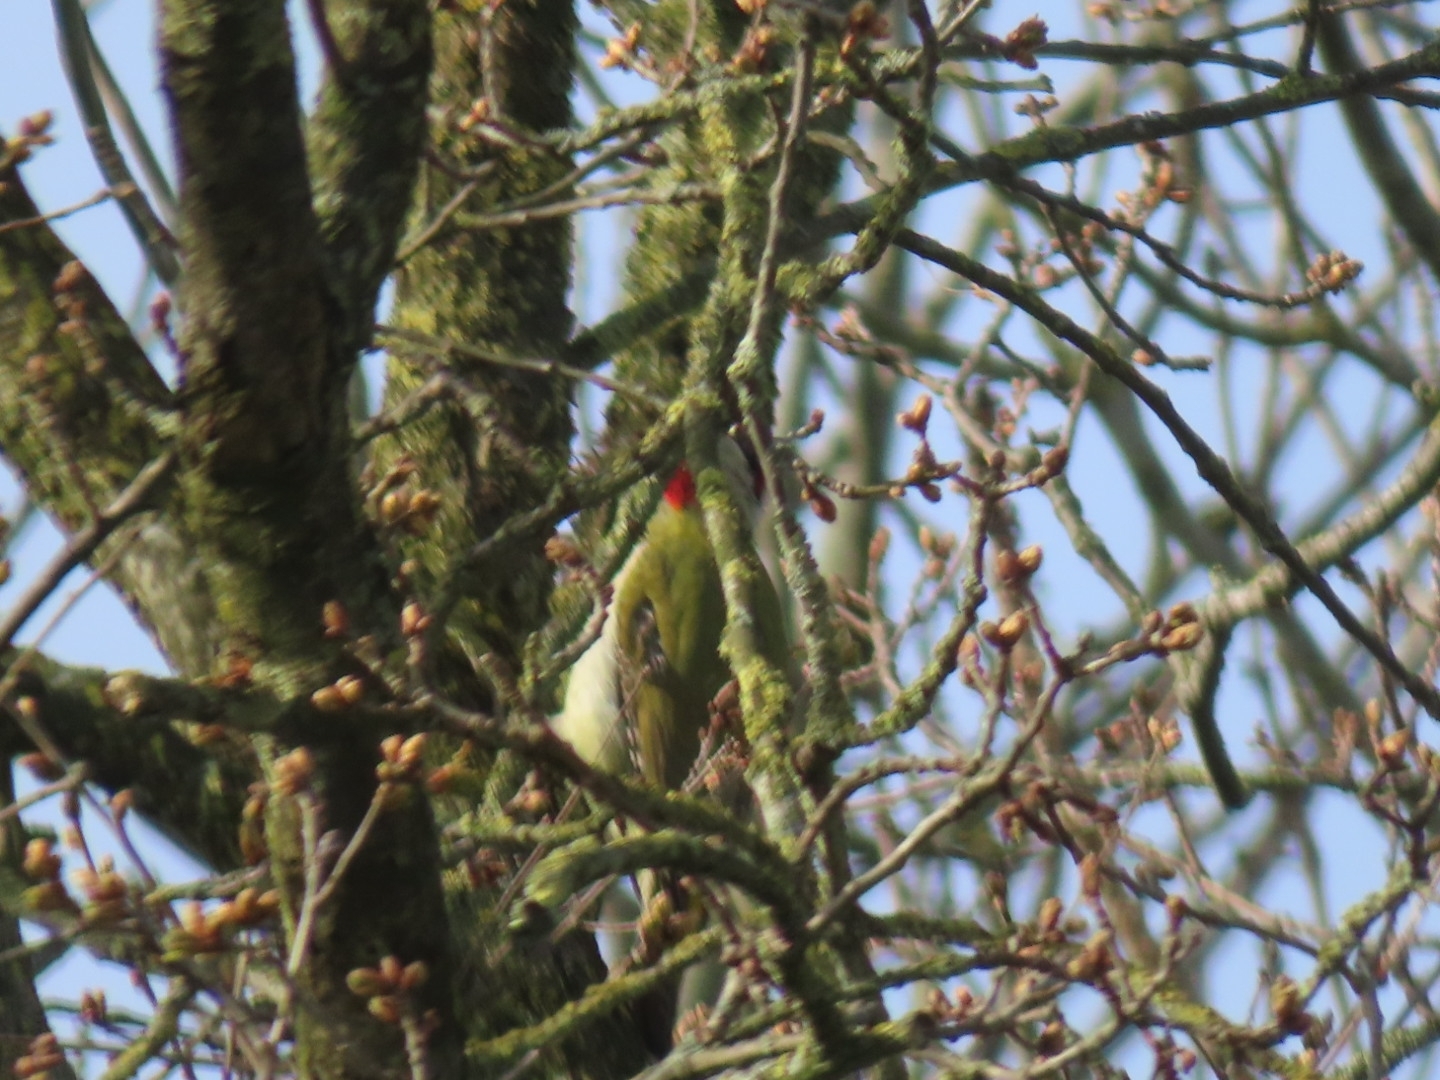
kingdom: Animalia
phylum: Chordata
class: Aves
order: Piciformes
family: Picidae
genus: Picus
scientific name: Picus viridis
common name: European green woodpecker
